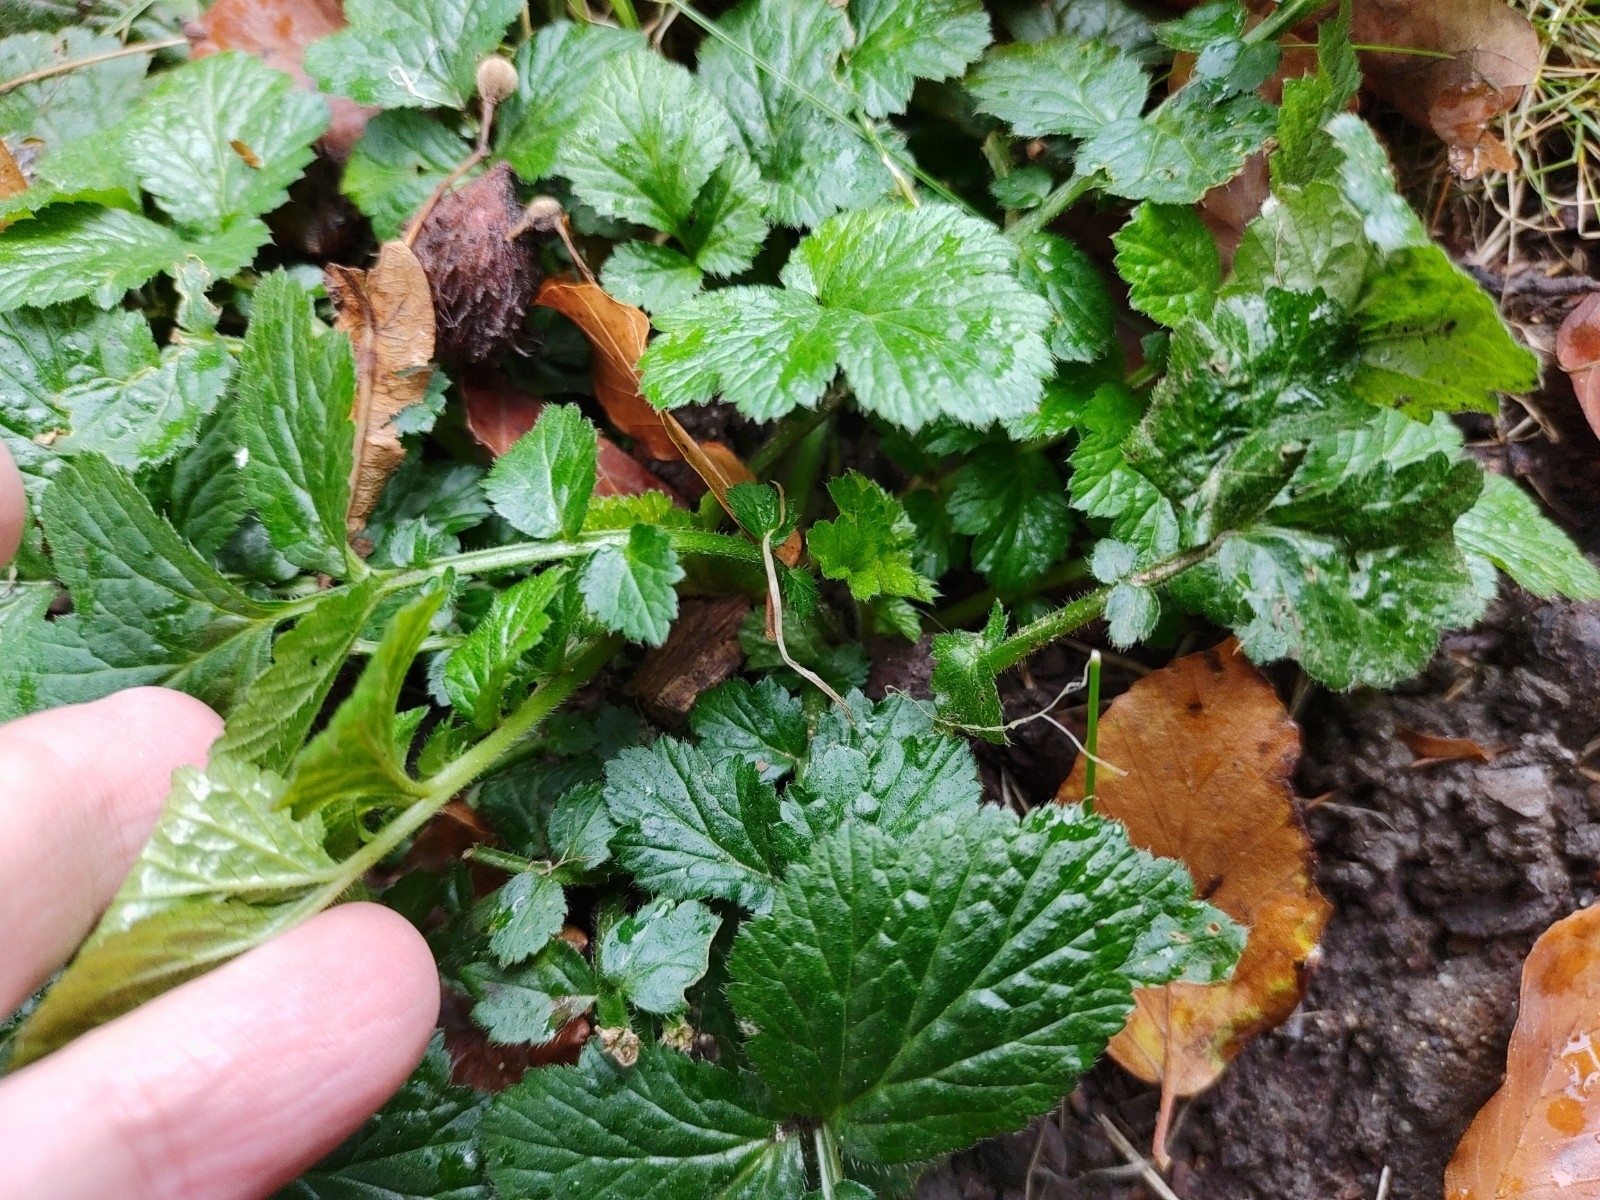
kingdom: Plantae
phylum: Tracheophyta
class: Magnoliopsida
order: Rosales
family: Rosaceae
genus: Geum
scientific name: Geum urbanum
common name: Wood avens
